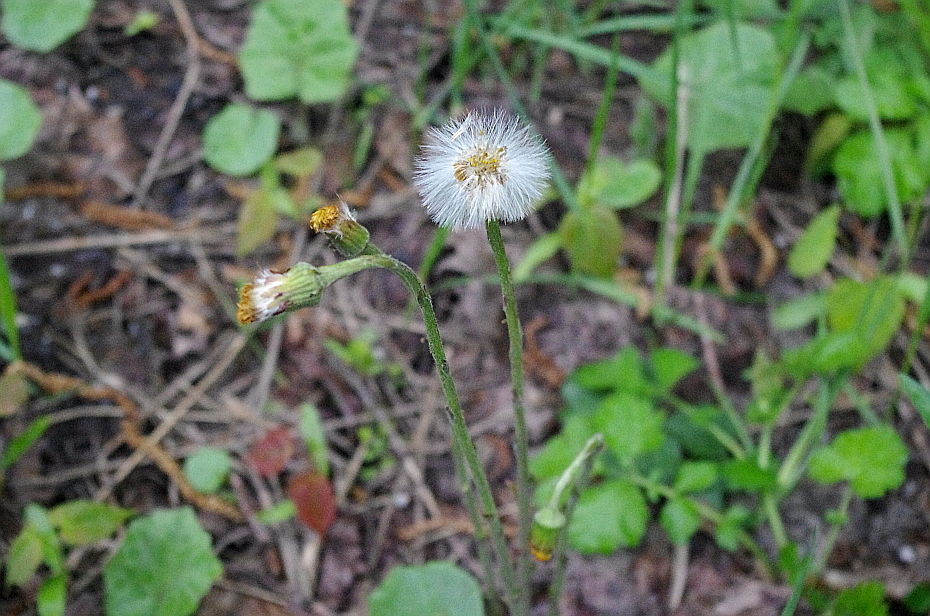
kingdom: Plantae
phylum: Tracheophyta
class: Magnoliopsida
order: Asterales
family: Asteraceae
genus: Tussilago
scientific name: Tussilago farfara
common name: Coltsfoot
